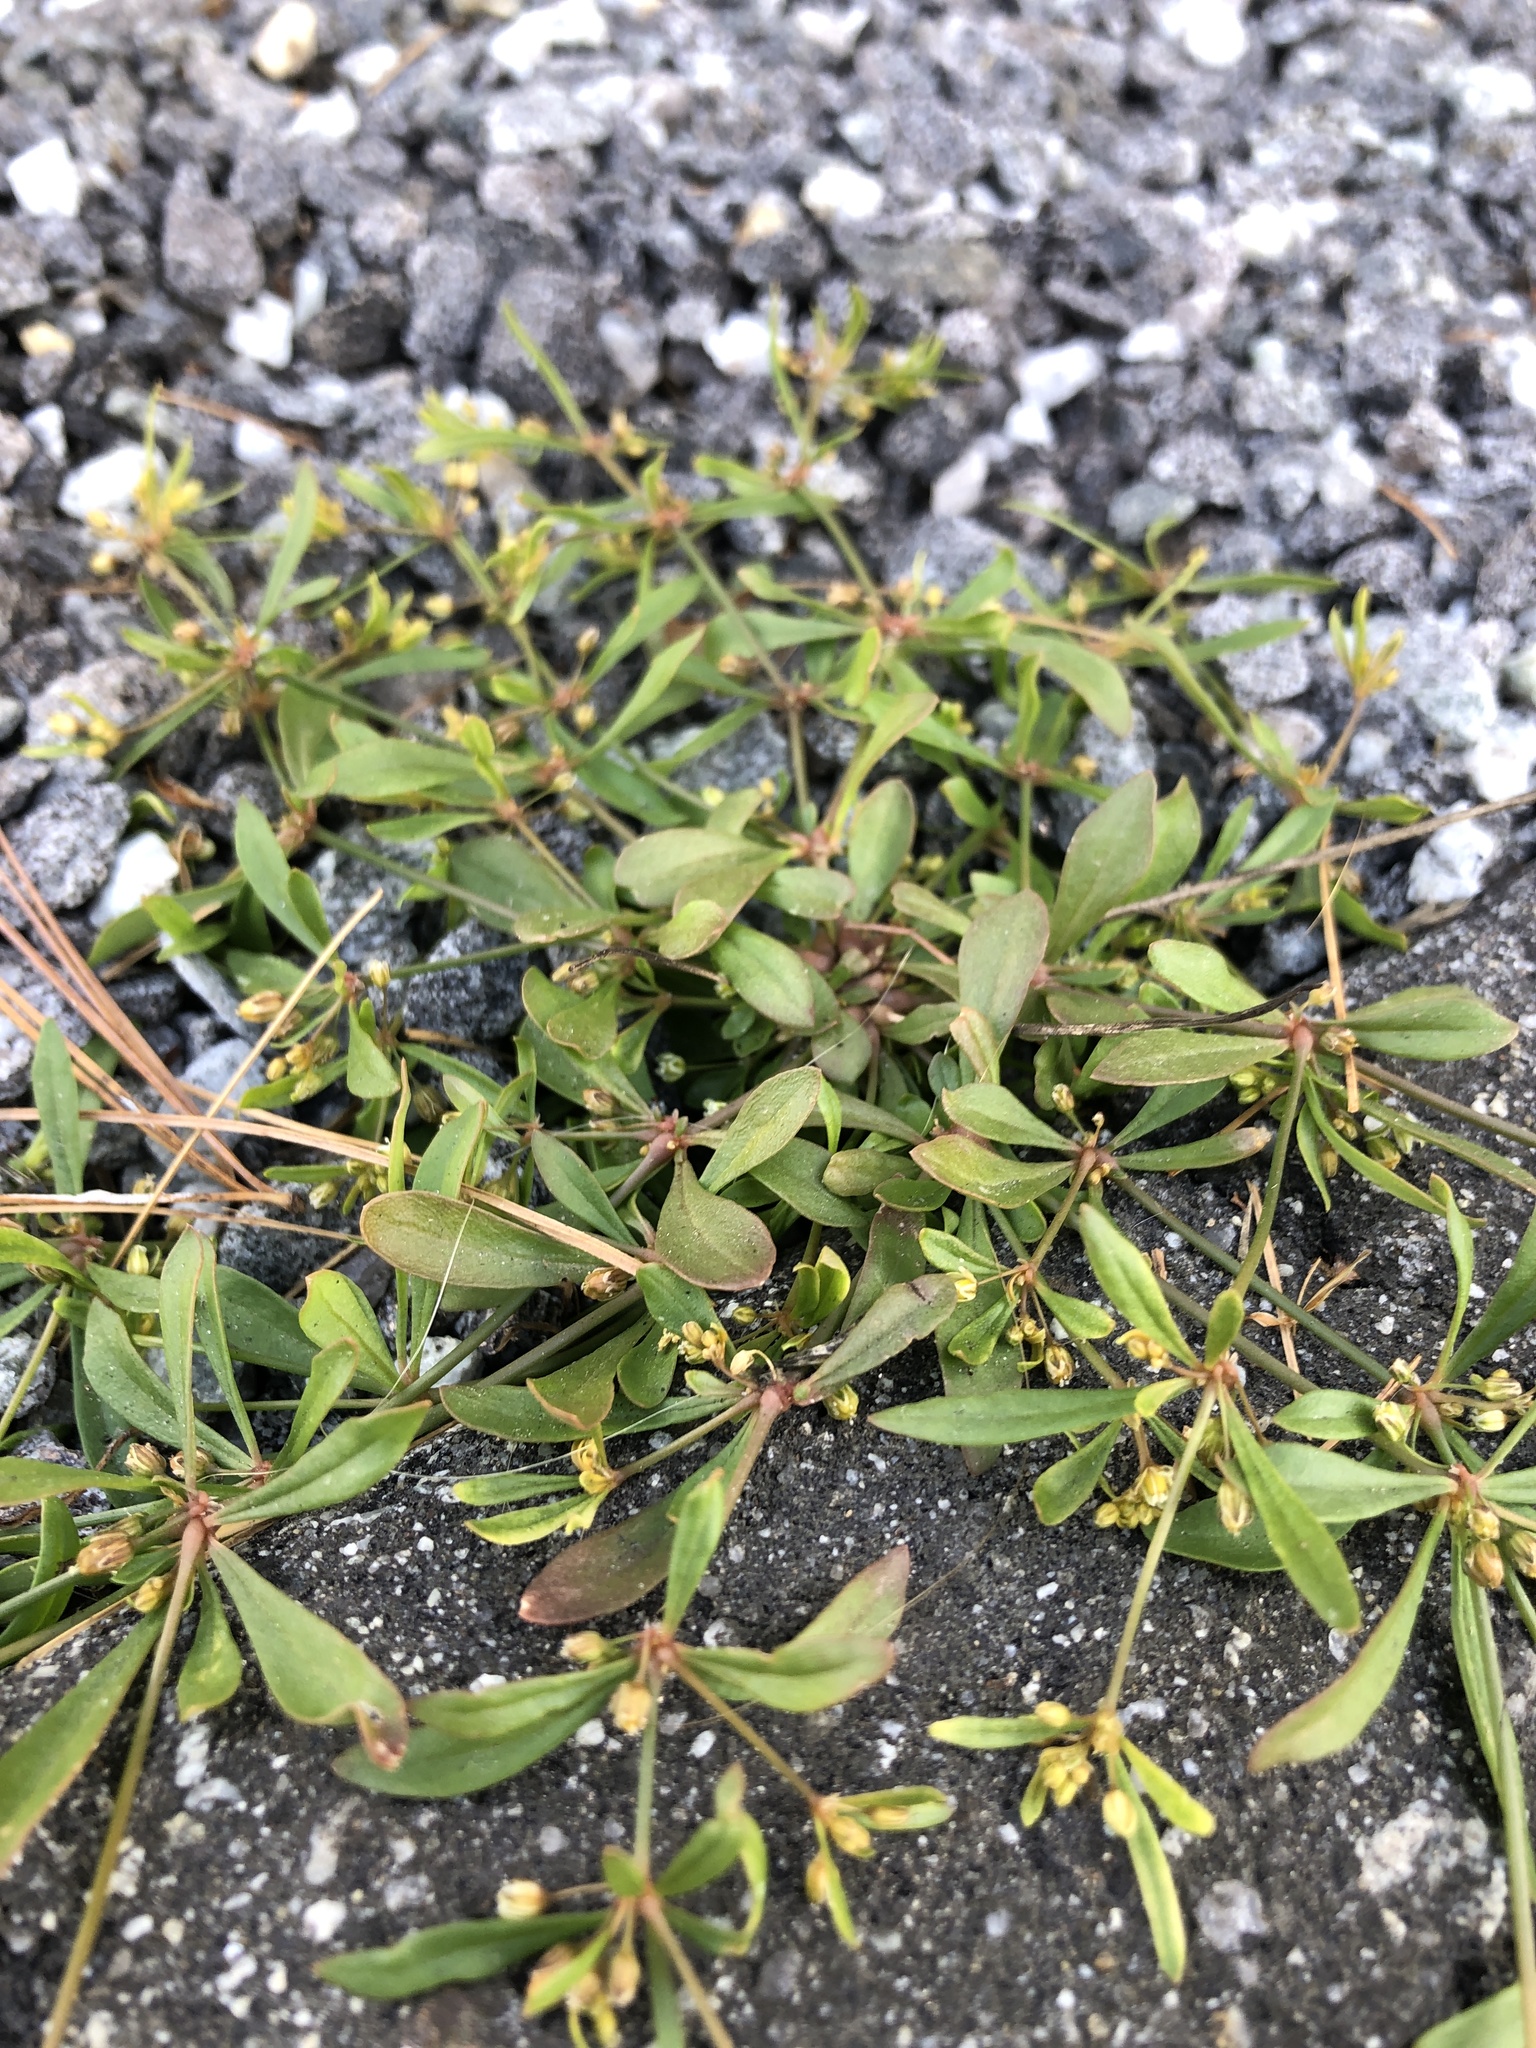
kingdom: Plantae
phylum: Tracheophyta
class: Magnoliopsida
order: Caryophyllales
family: Molluginaceae
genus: Mollugo
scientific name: Mollugo verticillata
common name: Green carpetweed
